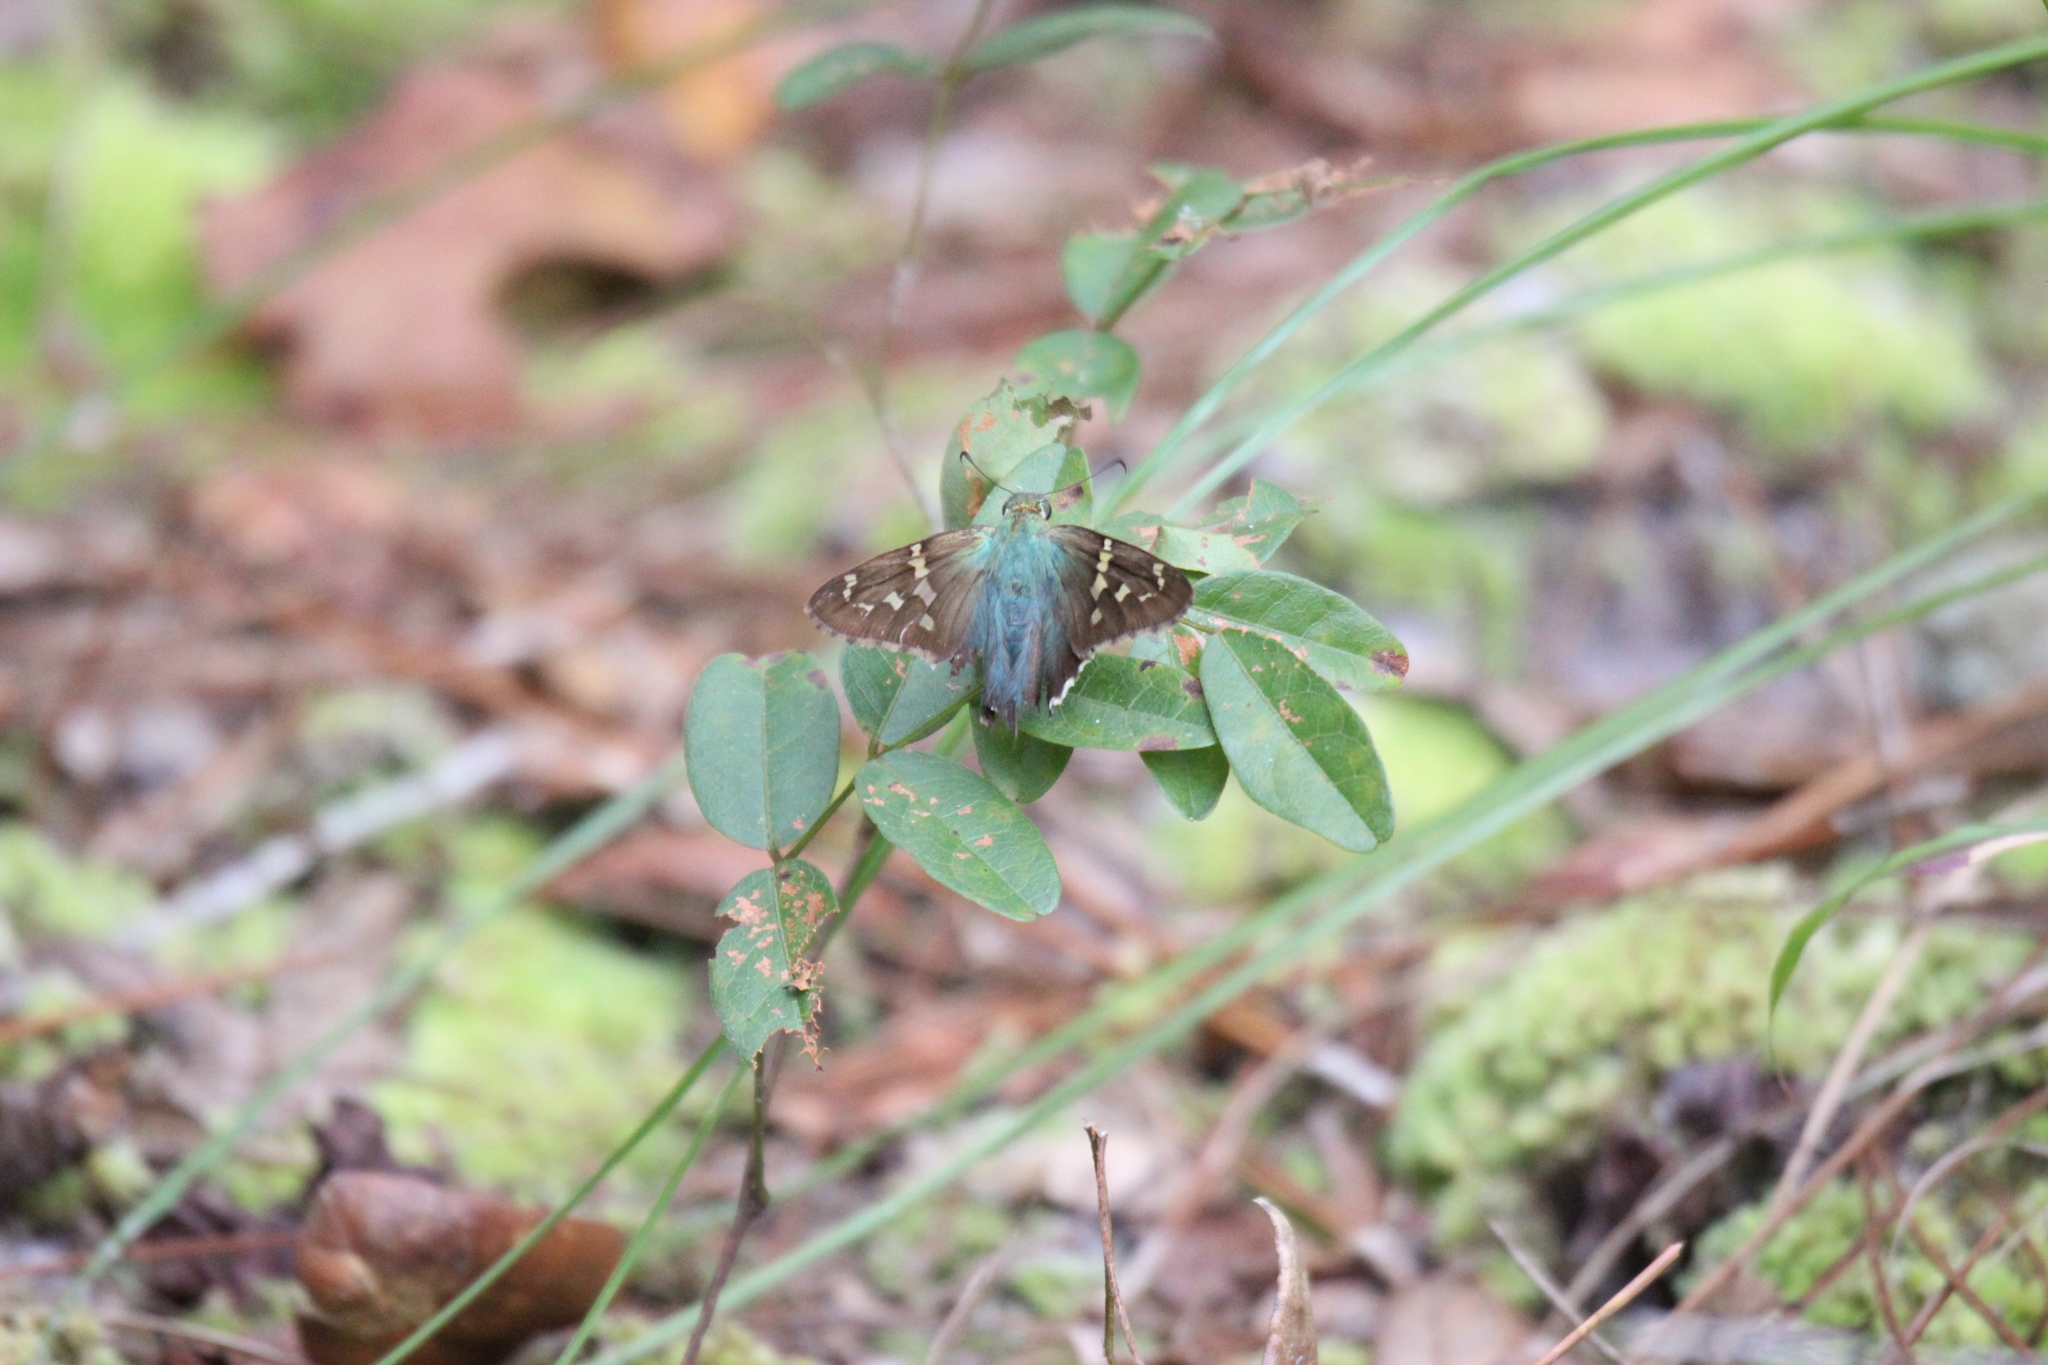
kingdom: Animalia
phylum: Arthropoda
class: Insecta
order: Lepidoptera
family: Hesperiidae
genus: Urbanus
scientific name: Urbanus proteus
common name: Long-tailed skipper
